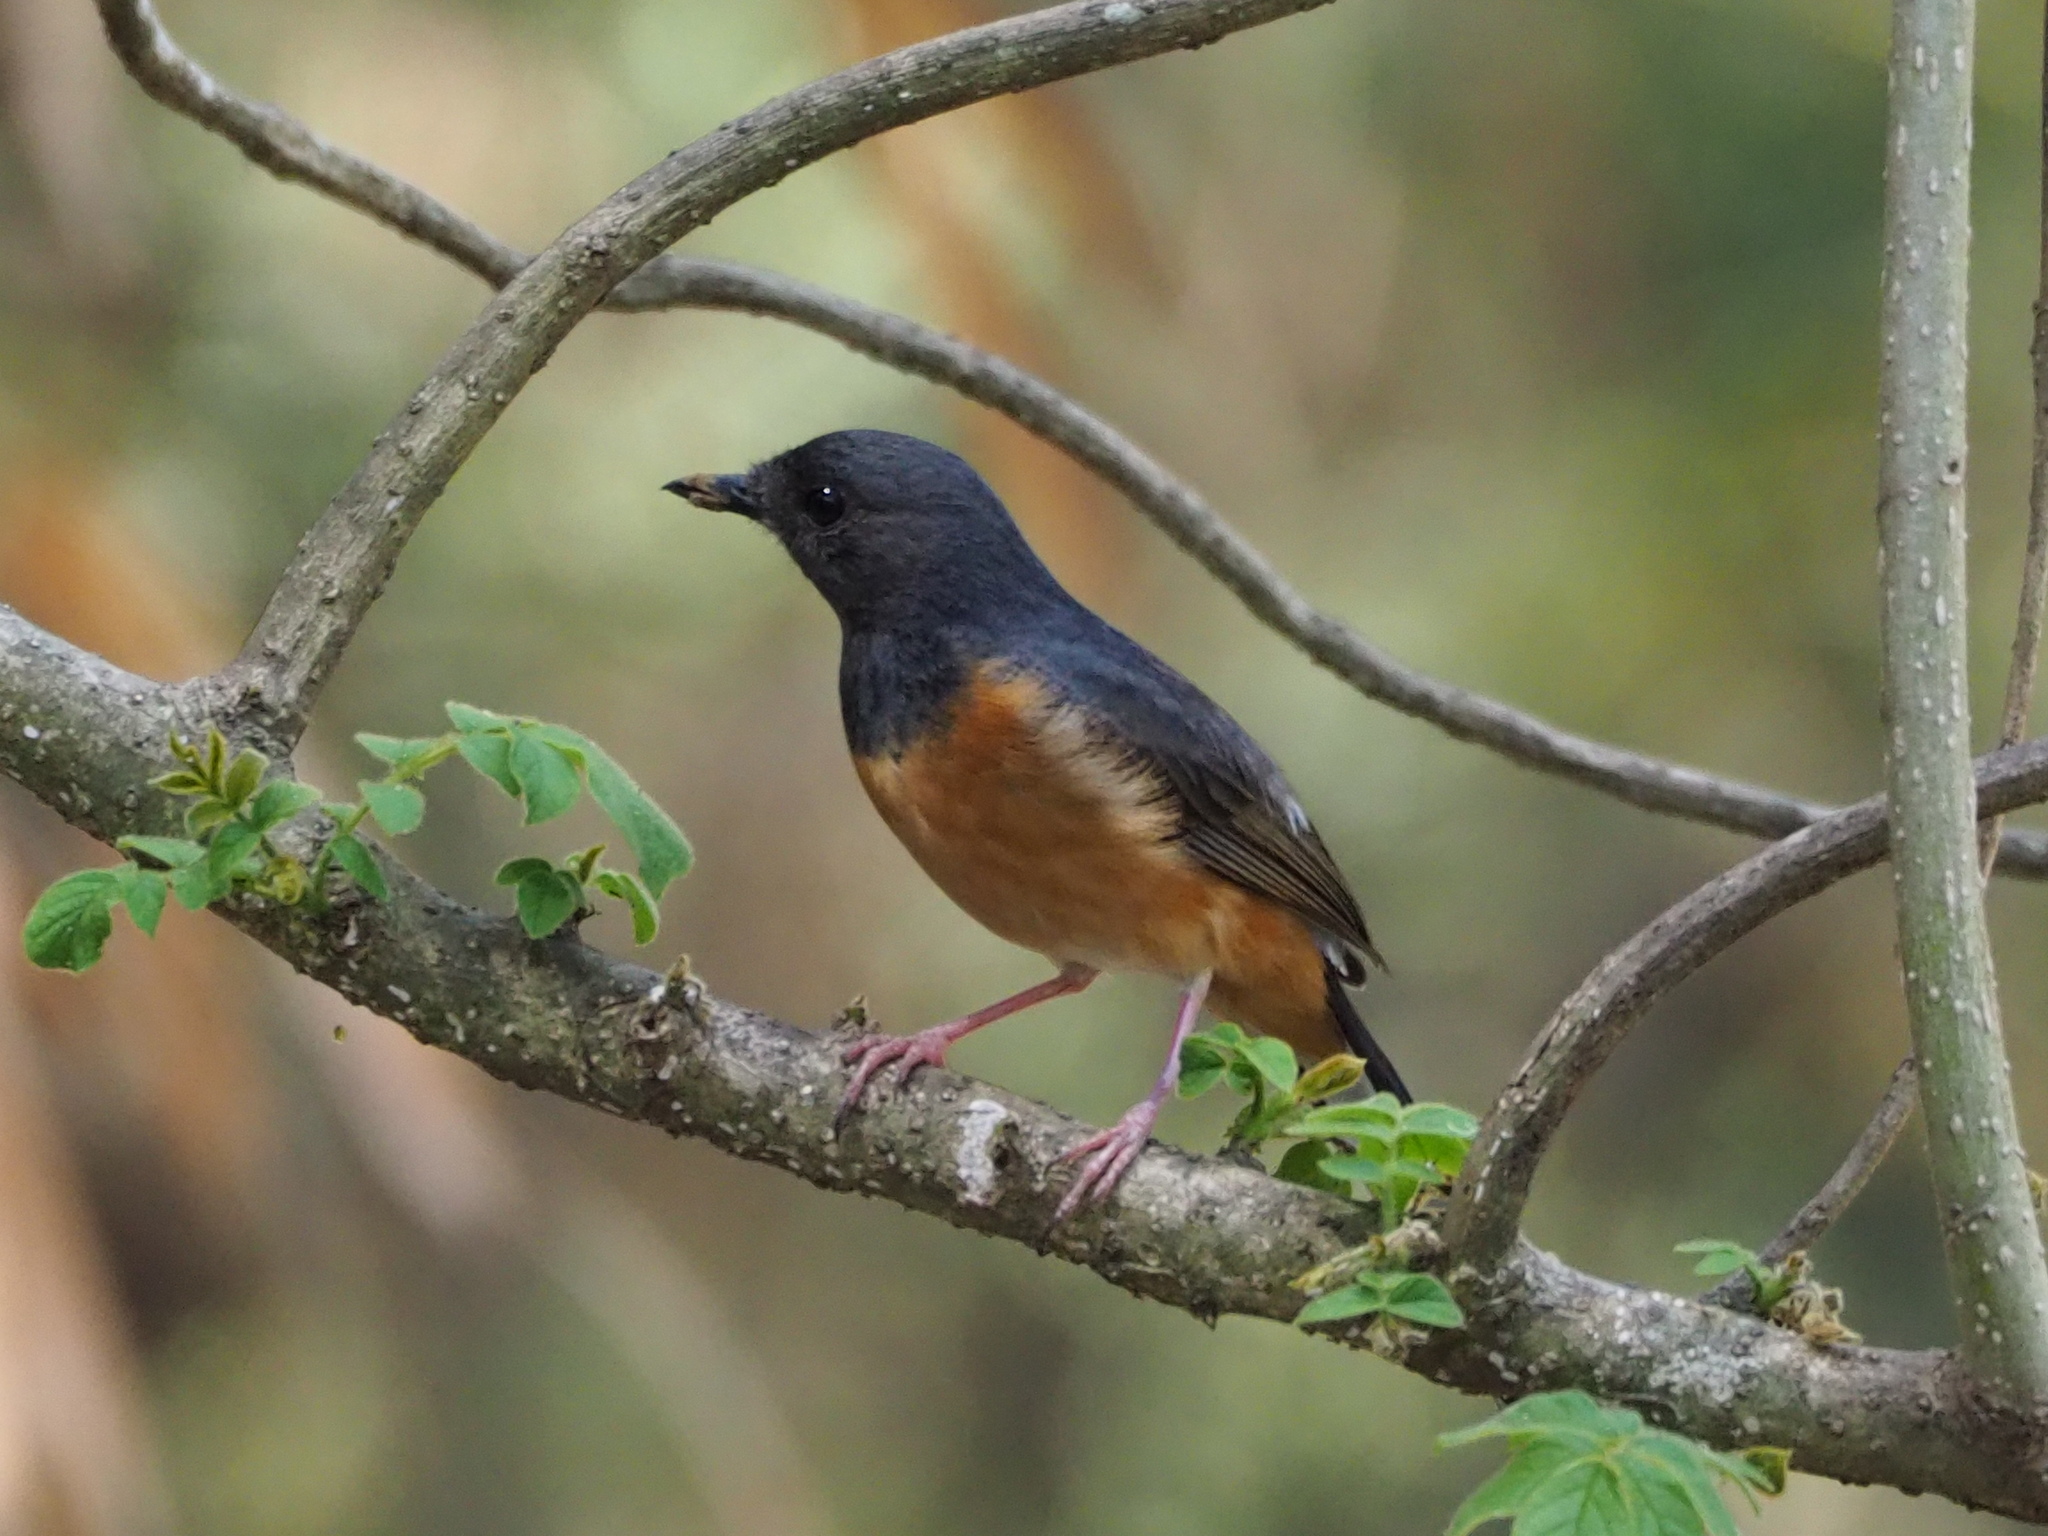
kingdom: Animalia
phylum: Chordata
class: Aves
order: Passeriformes
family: Muscicapidae
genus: Copsychus
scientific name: Copsychus malabaricus
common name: White-rumped shama
